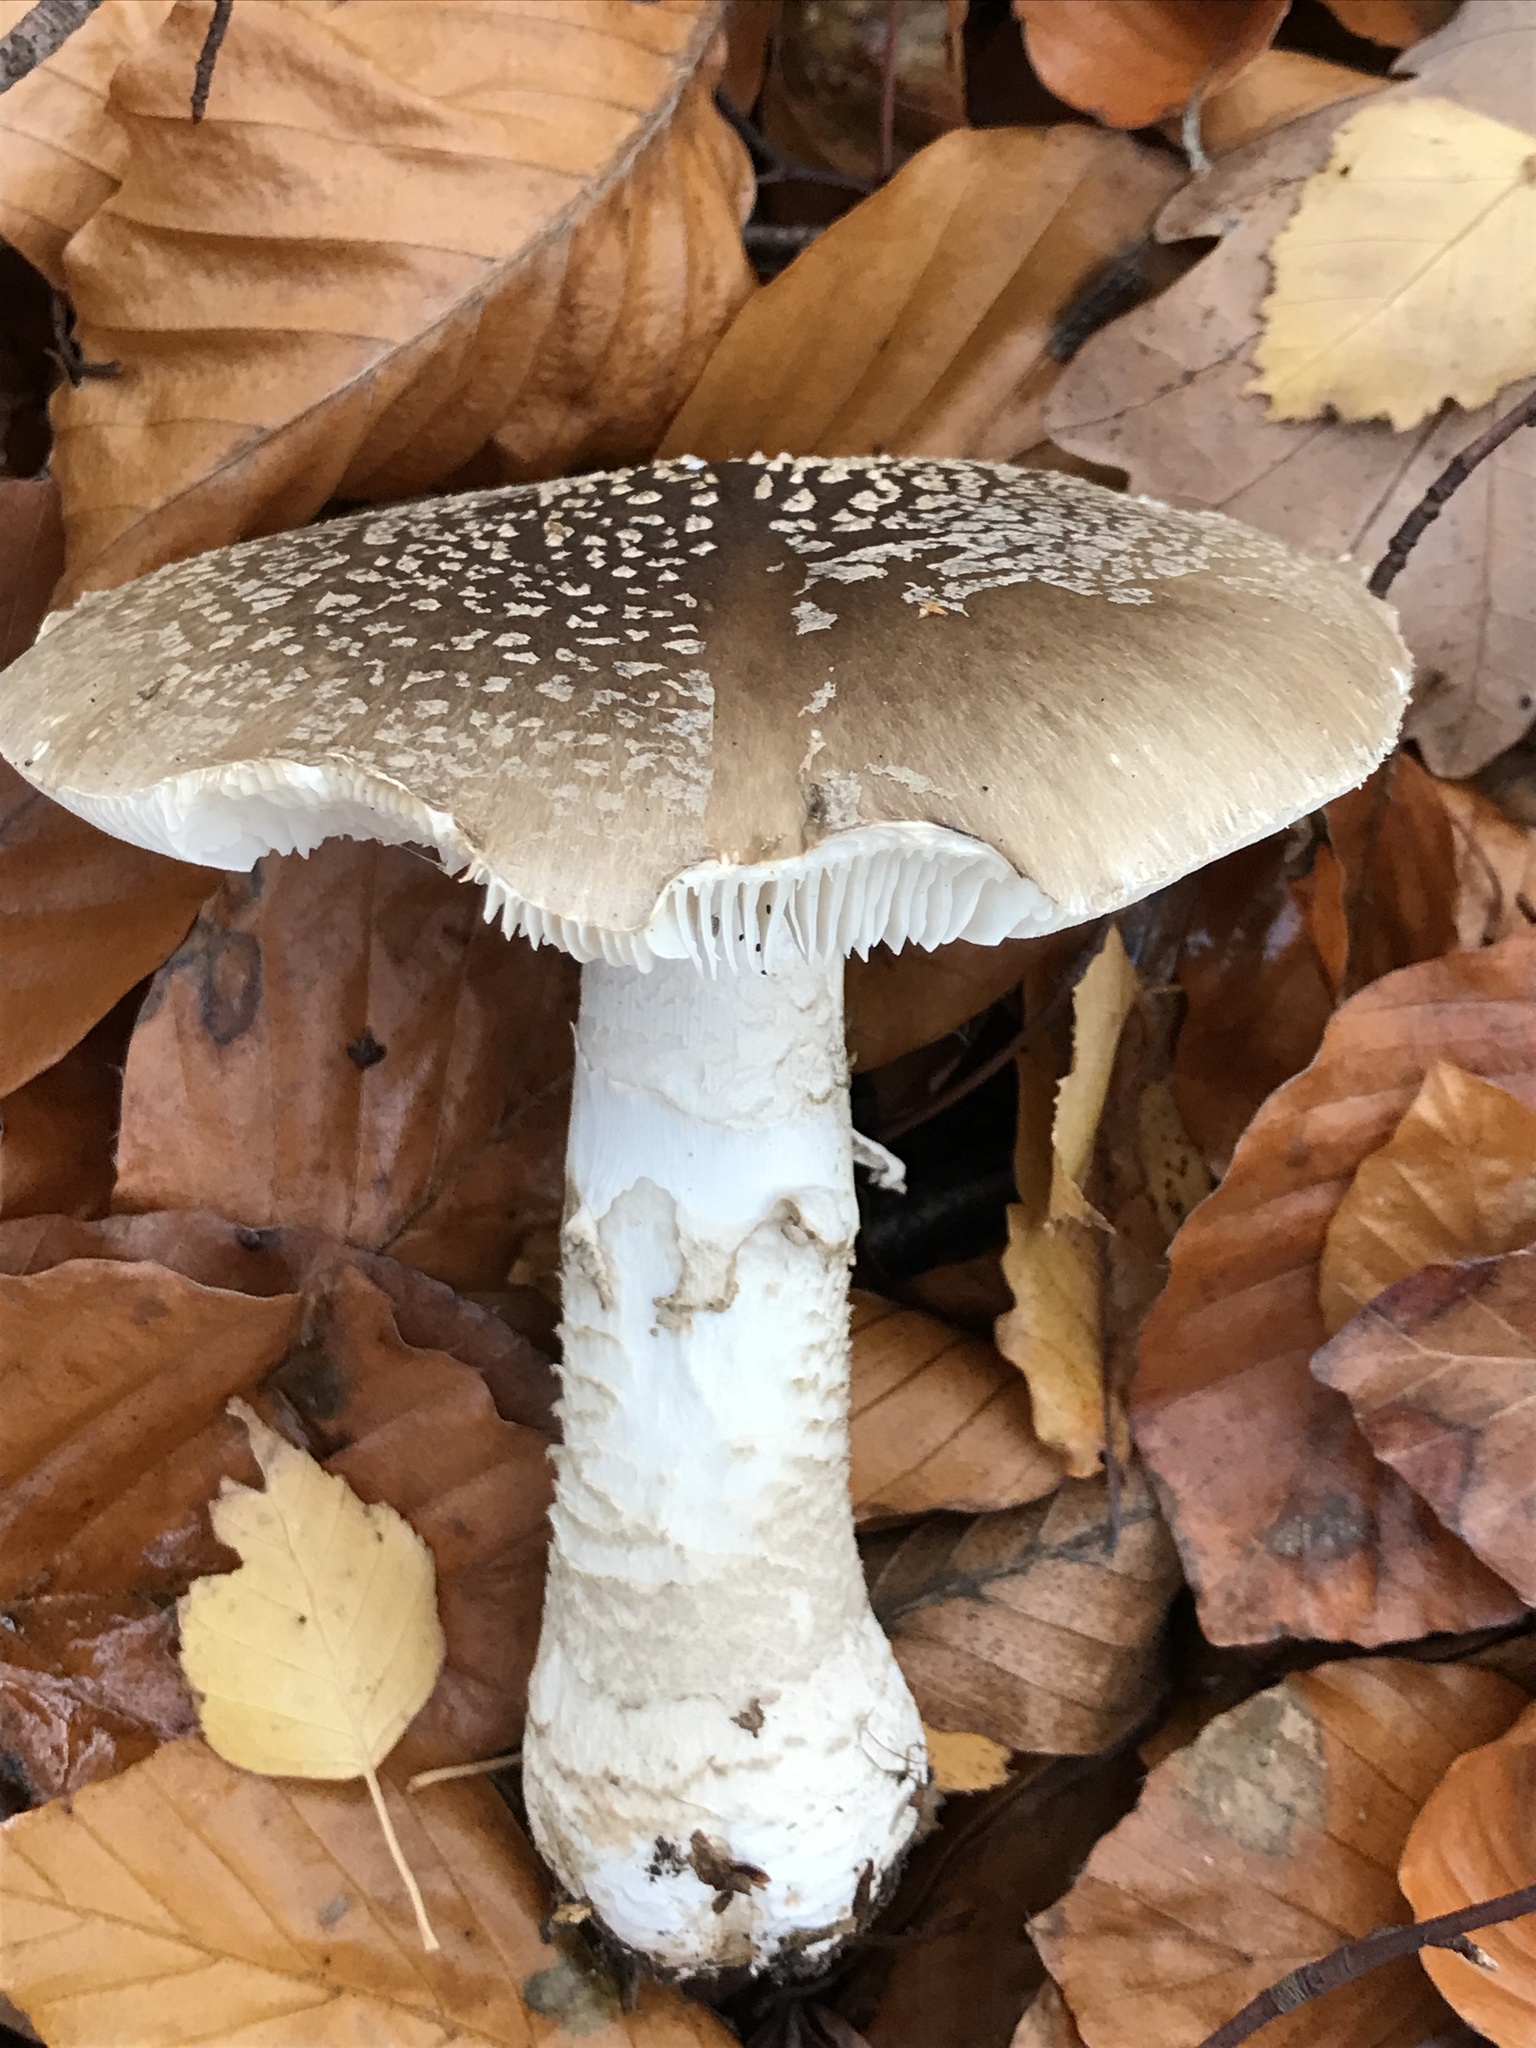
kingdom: Fungi
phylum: Basidiomycota
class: Agaricomycetes
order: Agaricales
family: Amanitaceae
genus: Amanita
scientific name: Amanita excelsa
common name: European false blusher
